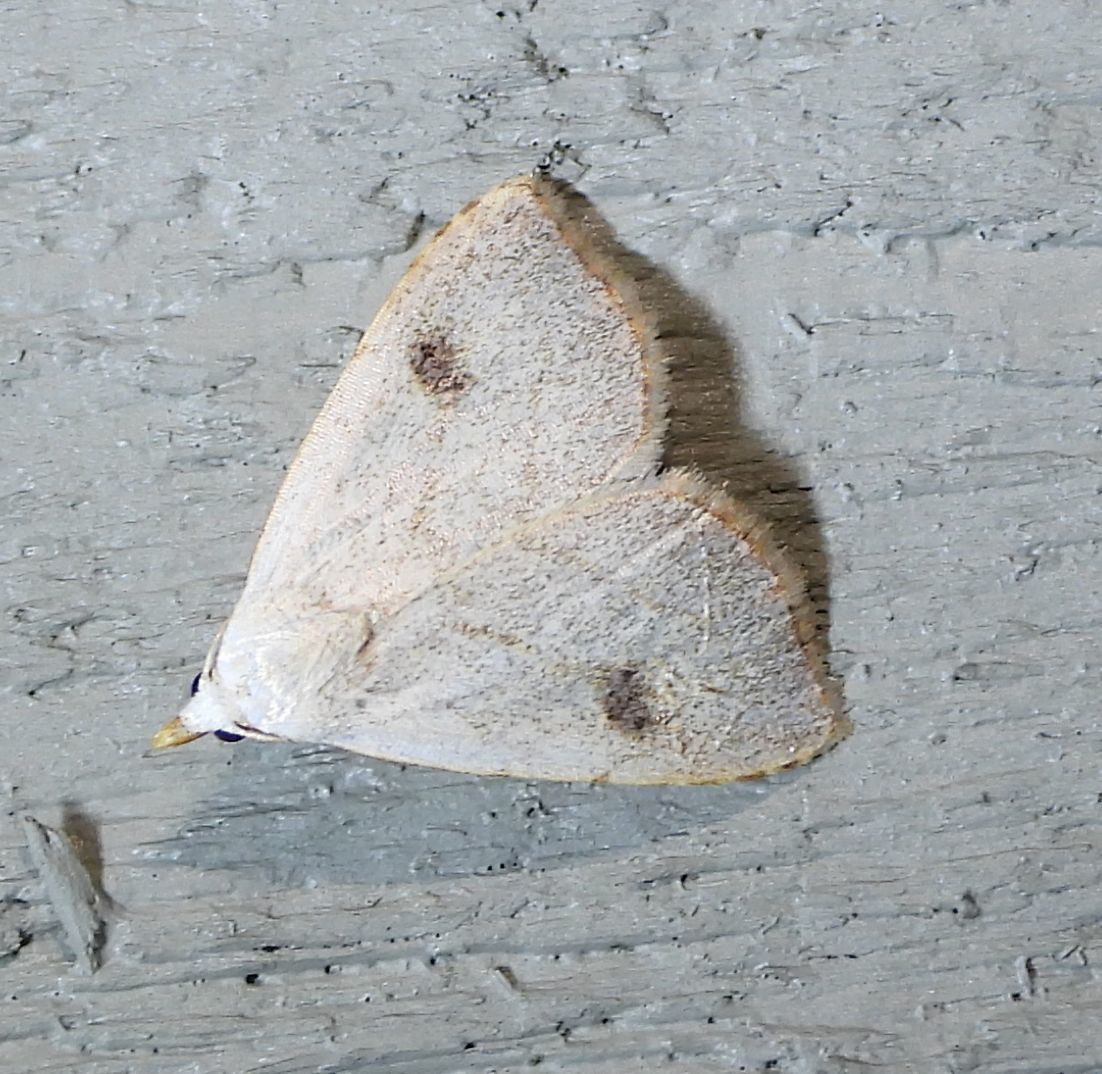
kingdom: Animalia
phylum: Arthropoda
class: Insecta
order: Lepidoptera
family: Erebidae
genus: Rivula
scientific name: Rivula propinqualis
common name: Spotted grass moth
